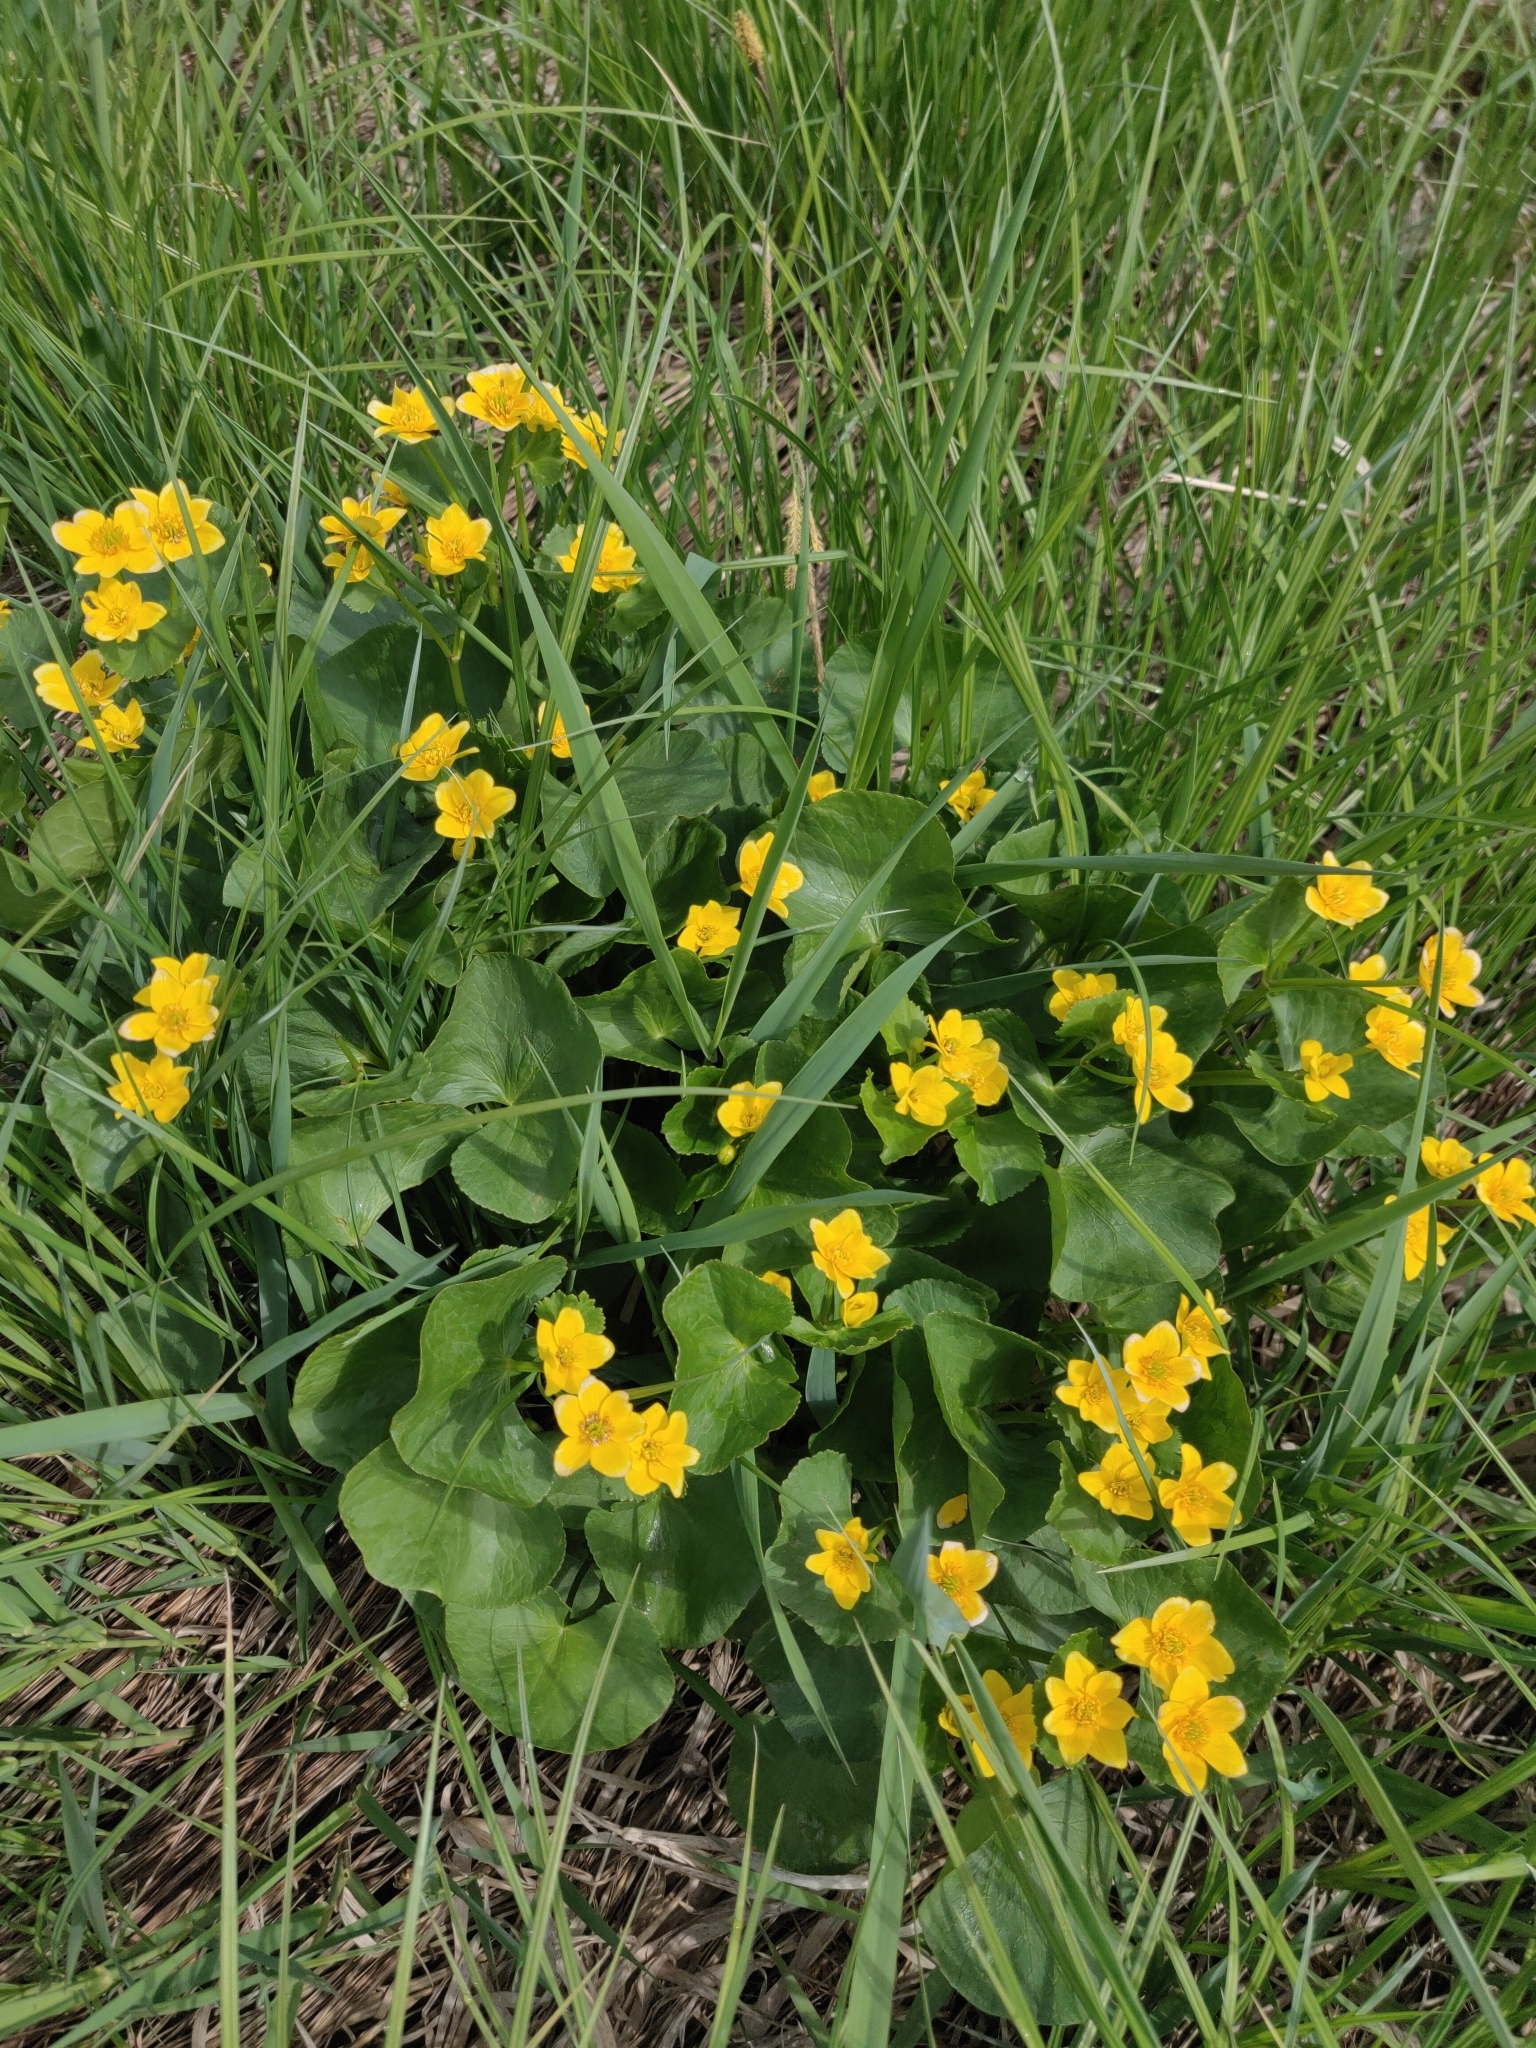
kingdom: Plantae
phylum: Tracheophyta
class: Magnoliopsida
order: Ranunculales
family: Ranunculaceae
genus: Caltha
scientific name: Caltha palustris
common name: Marsh marigold
